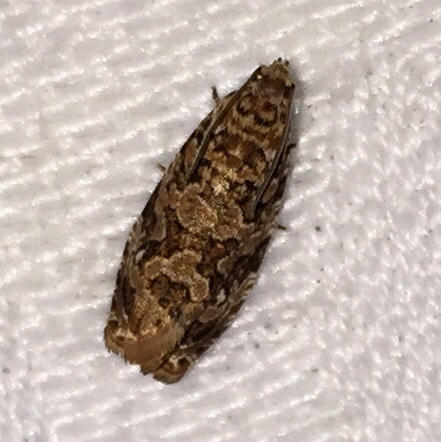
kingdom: Animalia
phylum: Arthropoda
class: Insecta
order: Lepidoptera
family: Tortricidae
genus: Phaecasiophora
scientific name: Phaecasiophora niveiguttana
